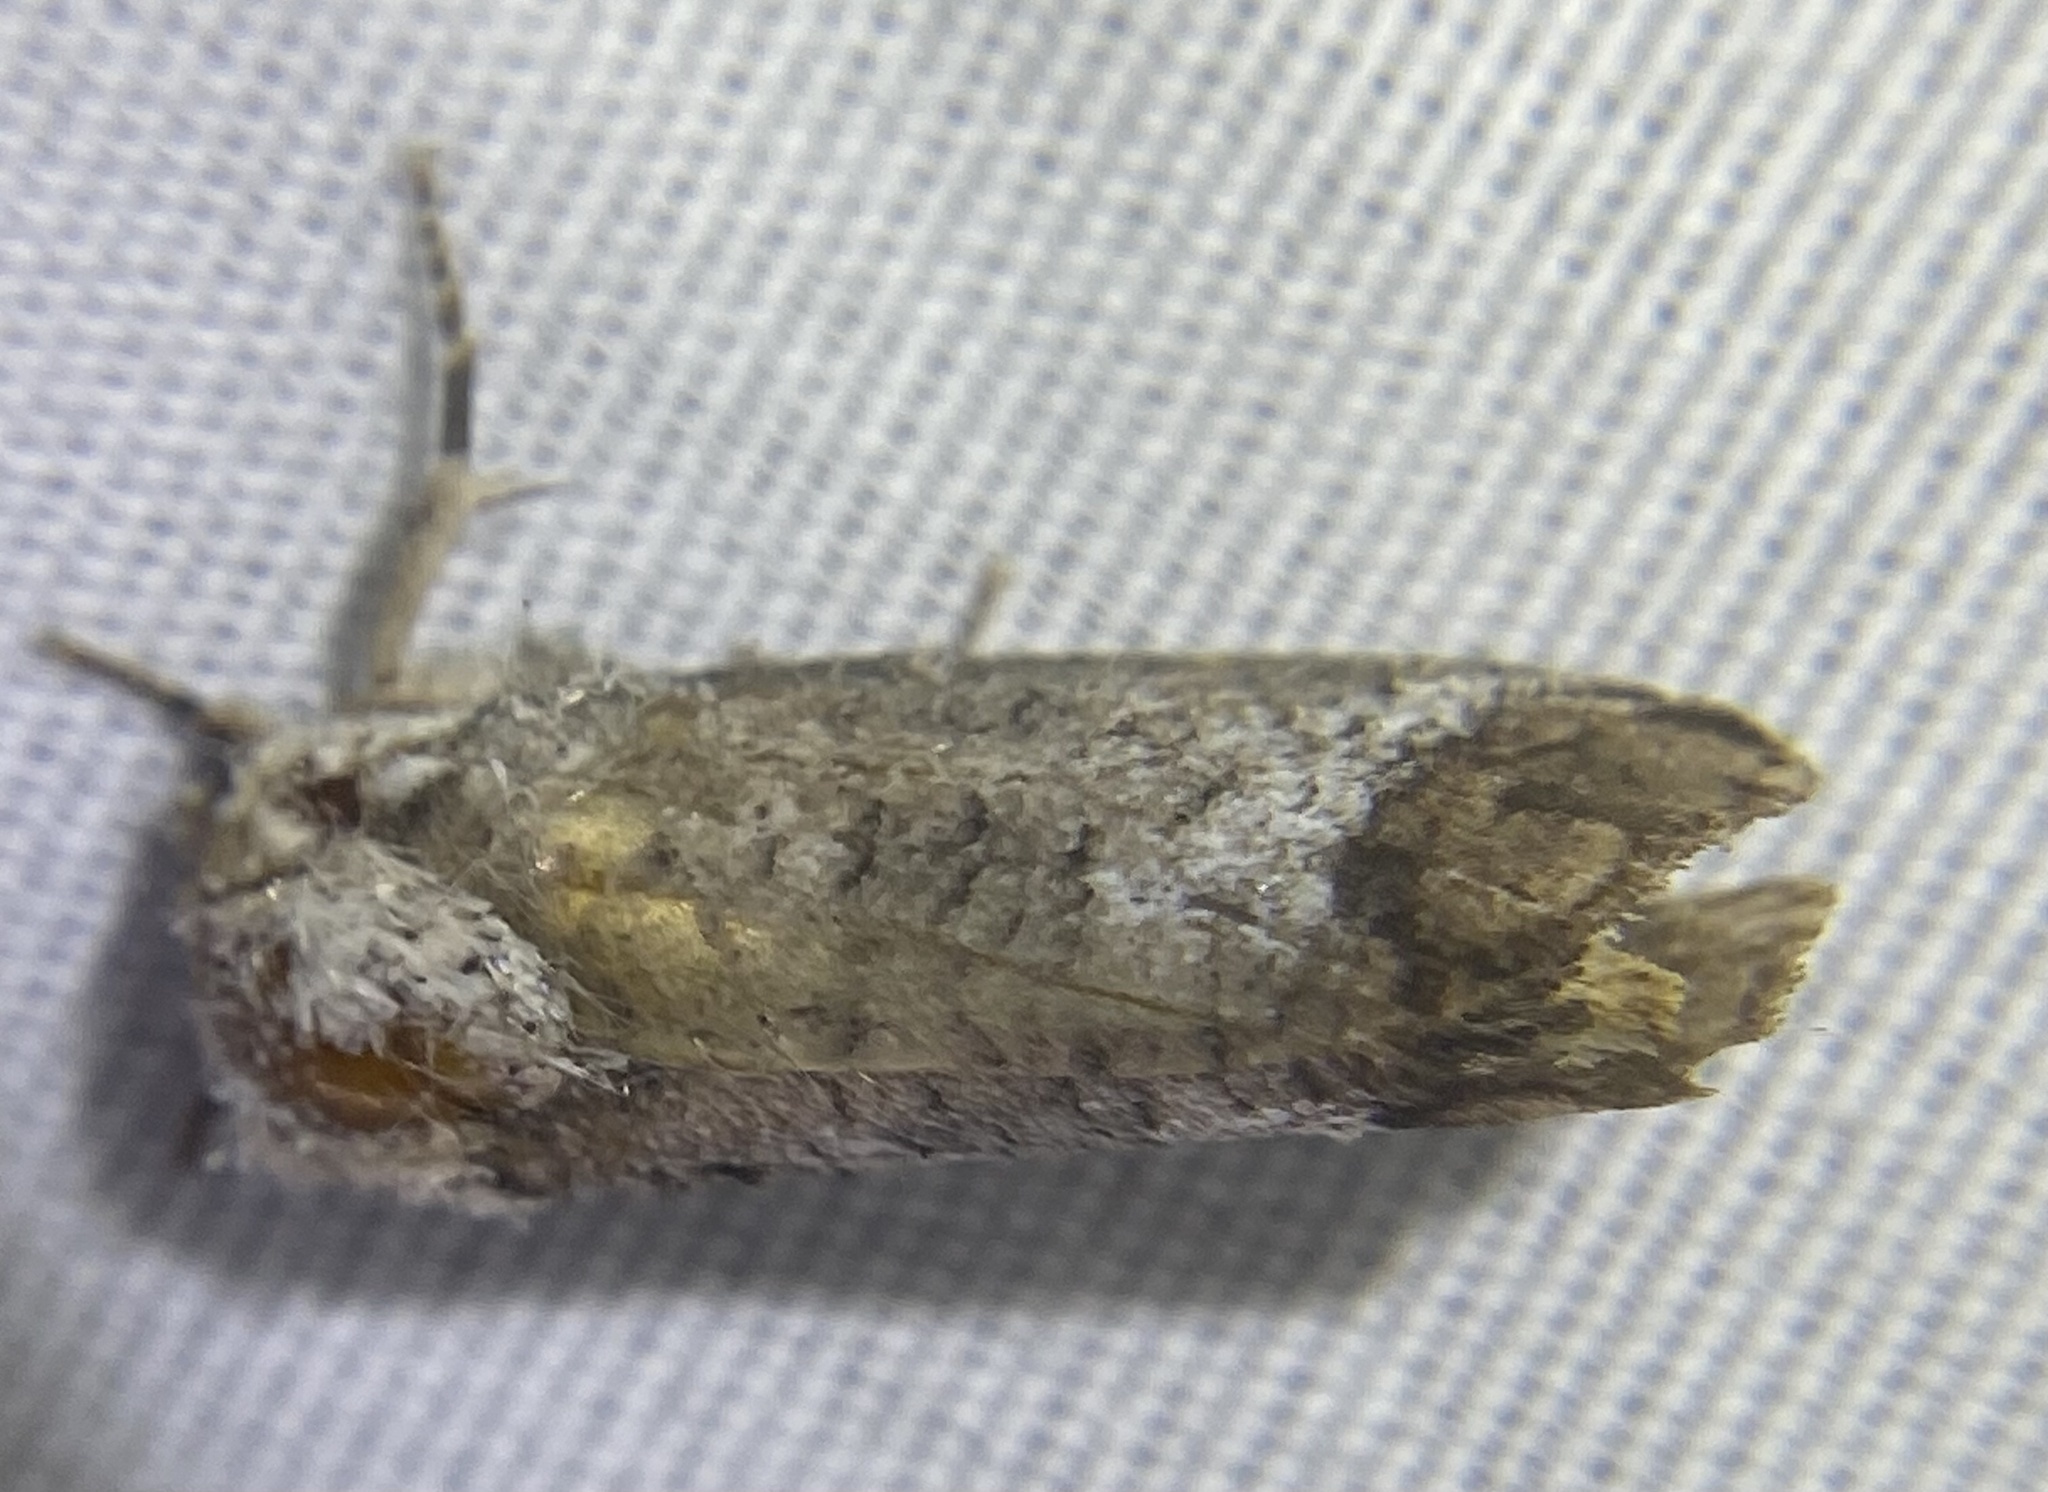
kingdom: Animalia
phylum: Arthropoda
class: Insecta
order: Lepidoptera
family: Cossidae
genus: Cossula
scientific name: Cossula magnifica
